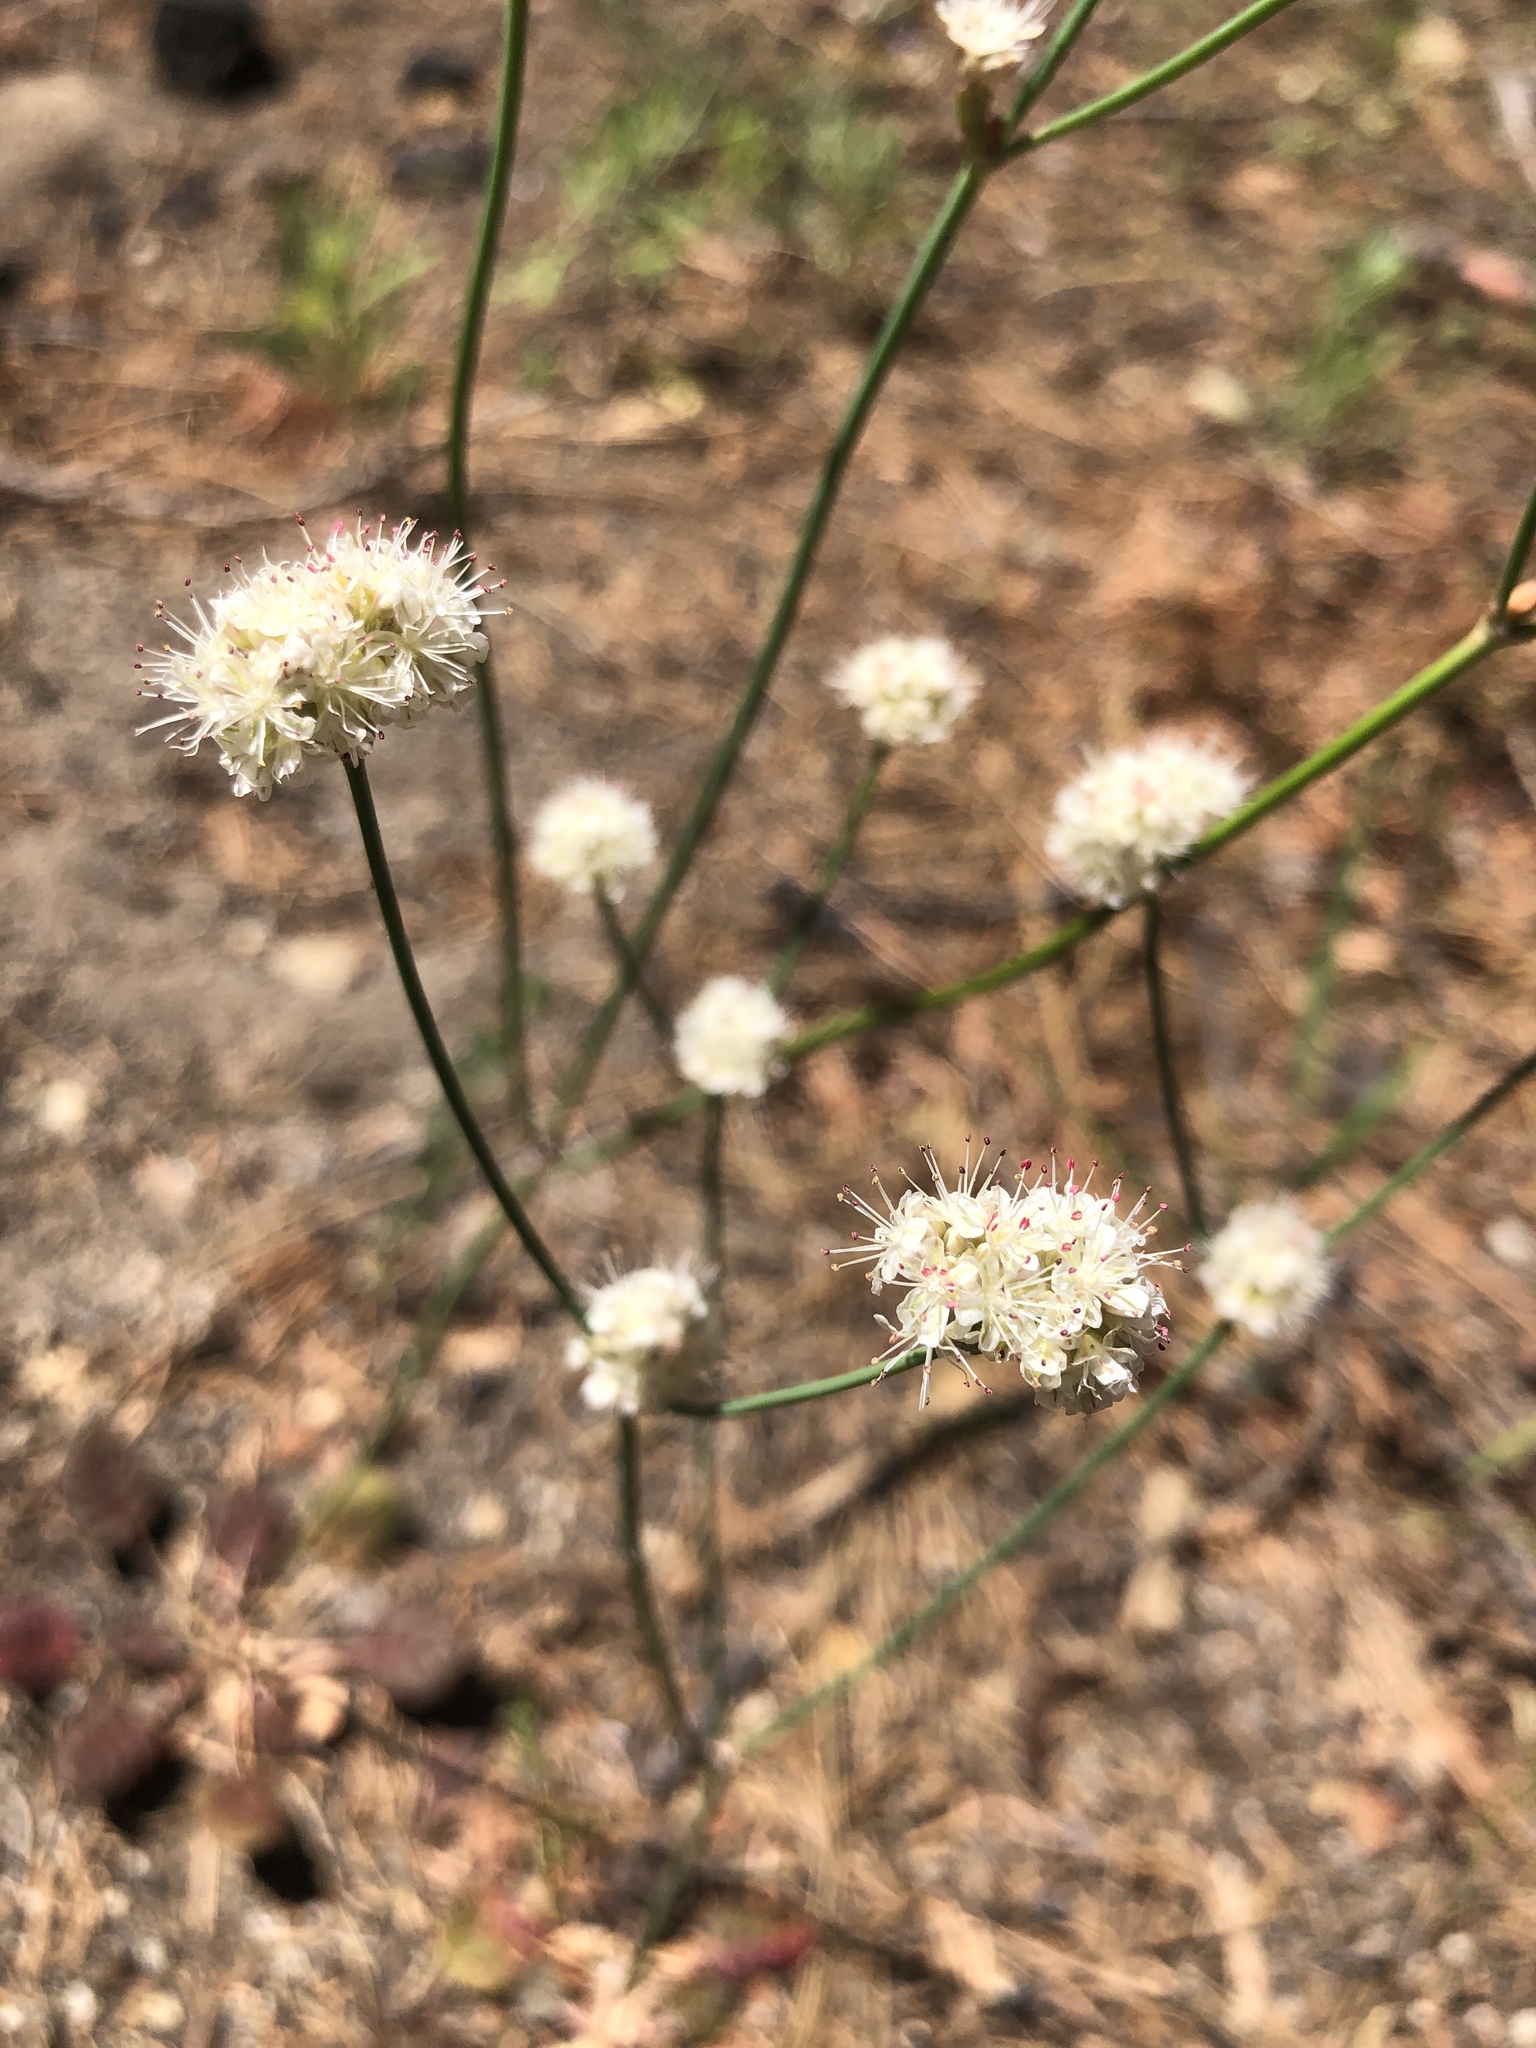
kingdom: Plantae
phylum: Tracheophyta
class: Magnoliopsida
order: Caryophyllales
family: Polygonaceae
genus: Eriogonum
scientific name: Eriogonum nudum
